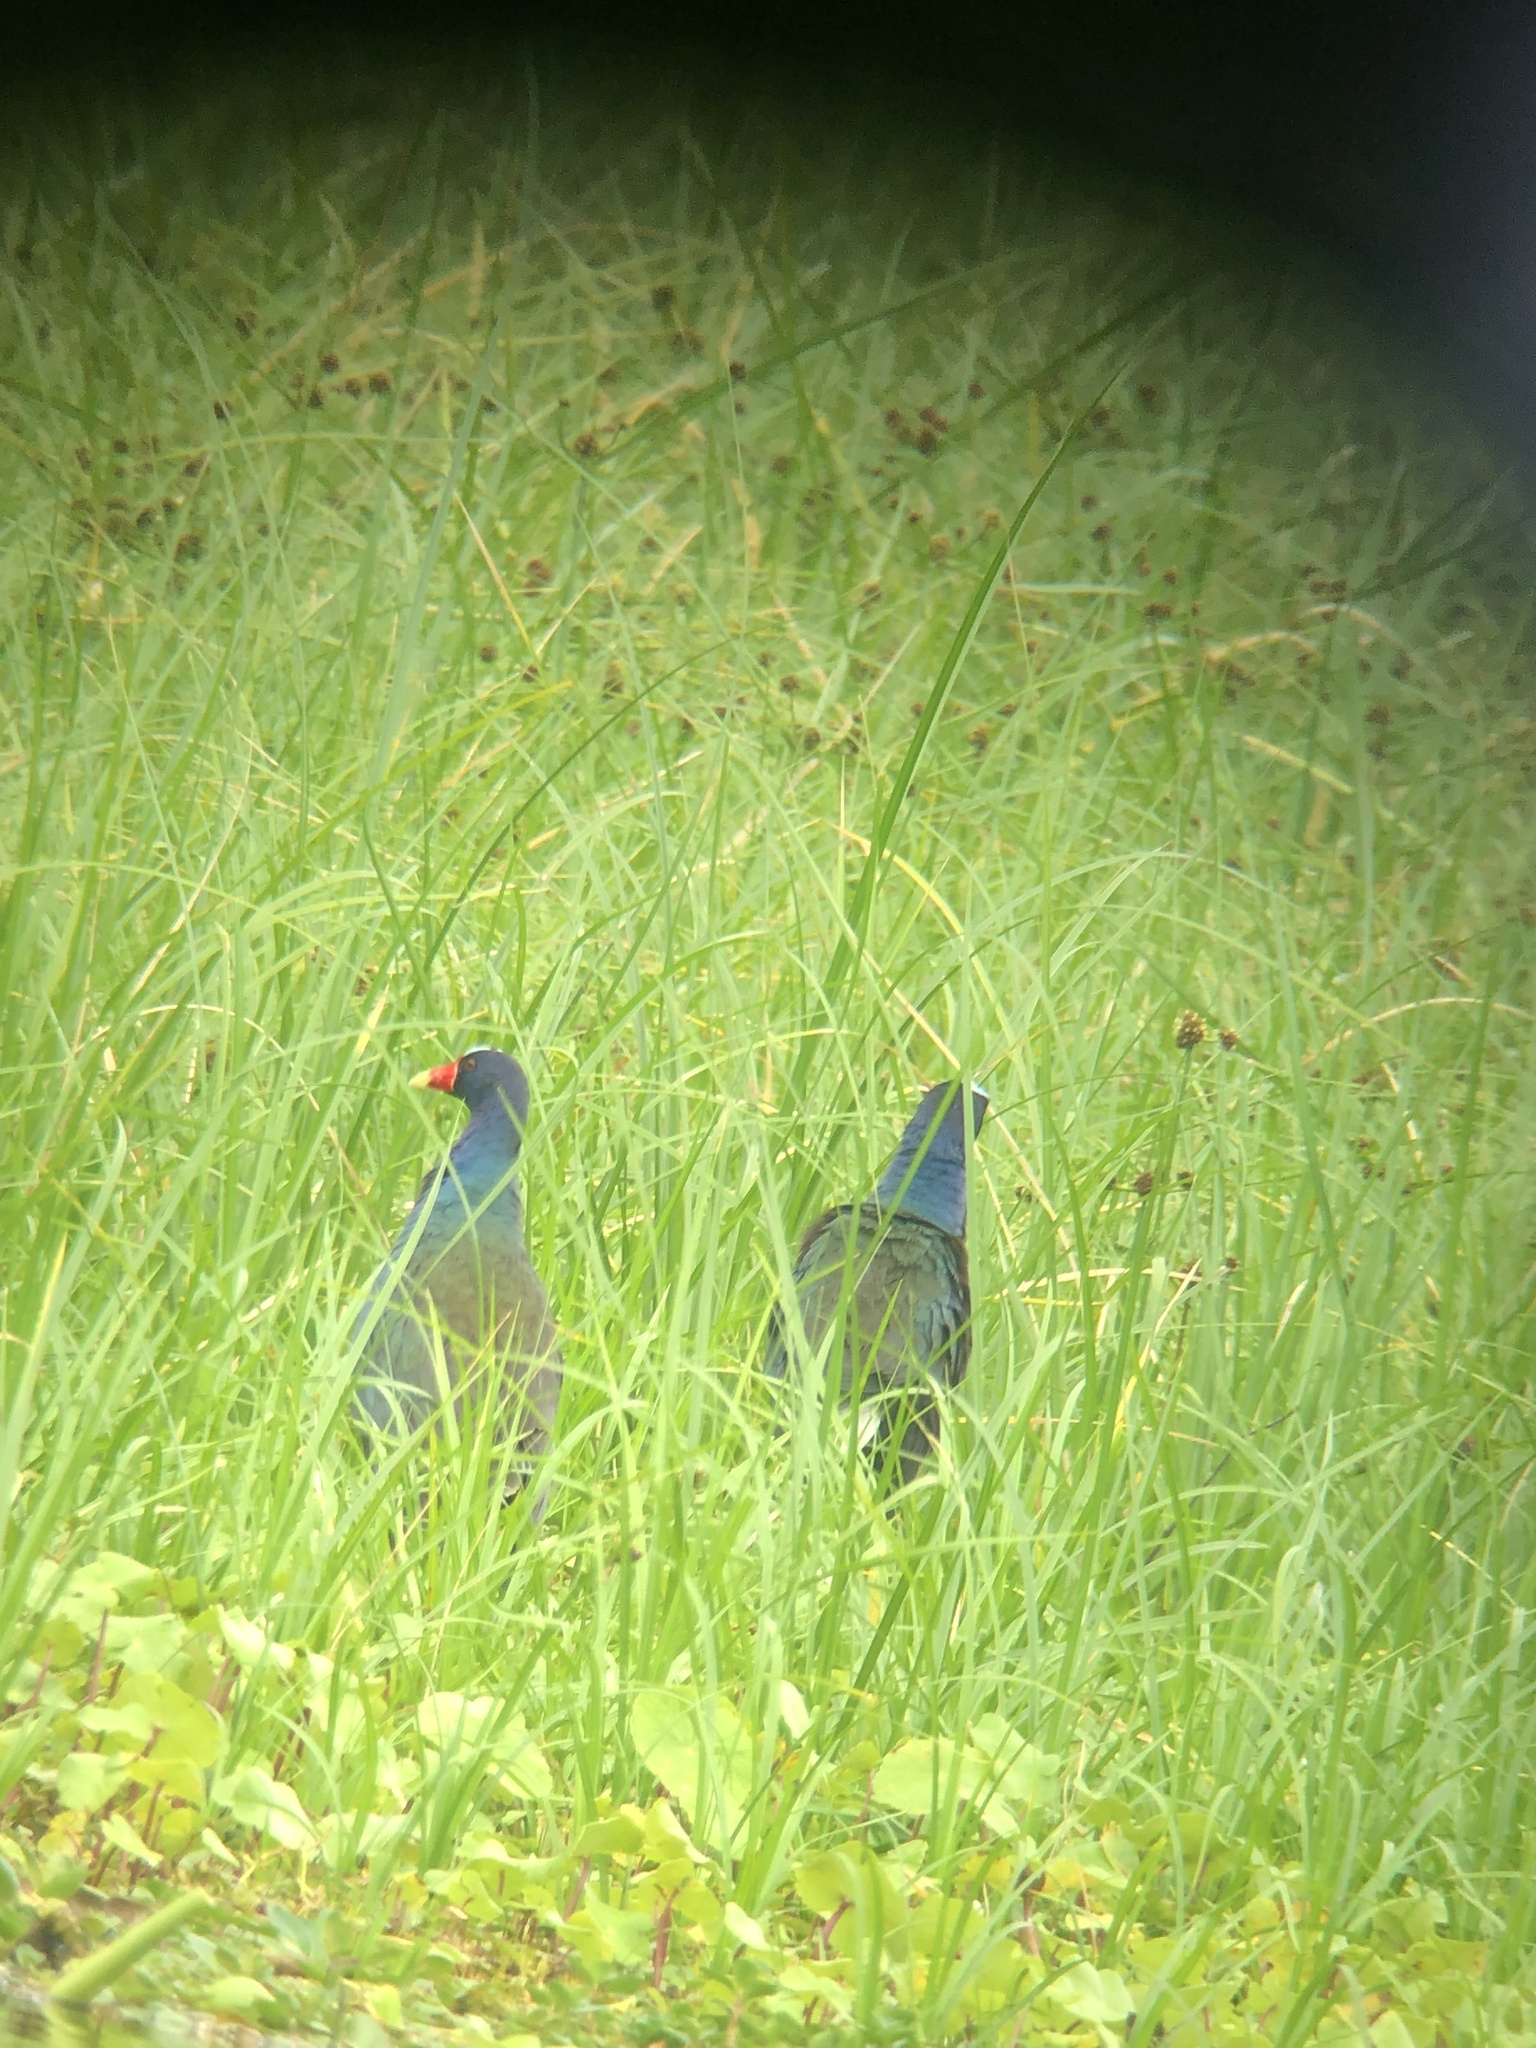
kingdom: Animalia
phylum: Chordata
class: Aves
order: Gruiformes
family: Rallidae
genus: Porphyrio
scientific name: Porphyrio martinica
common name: Purple gallinule
